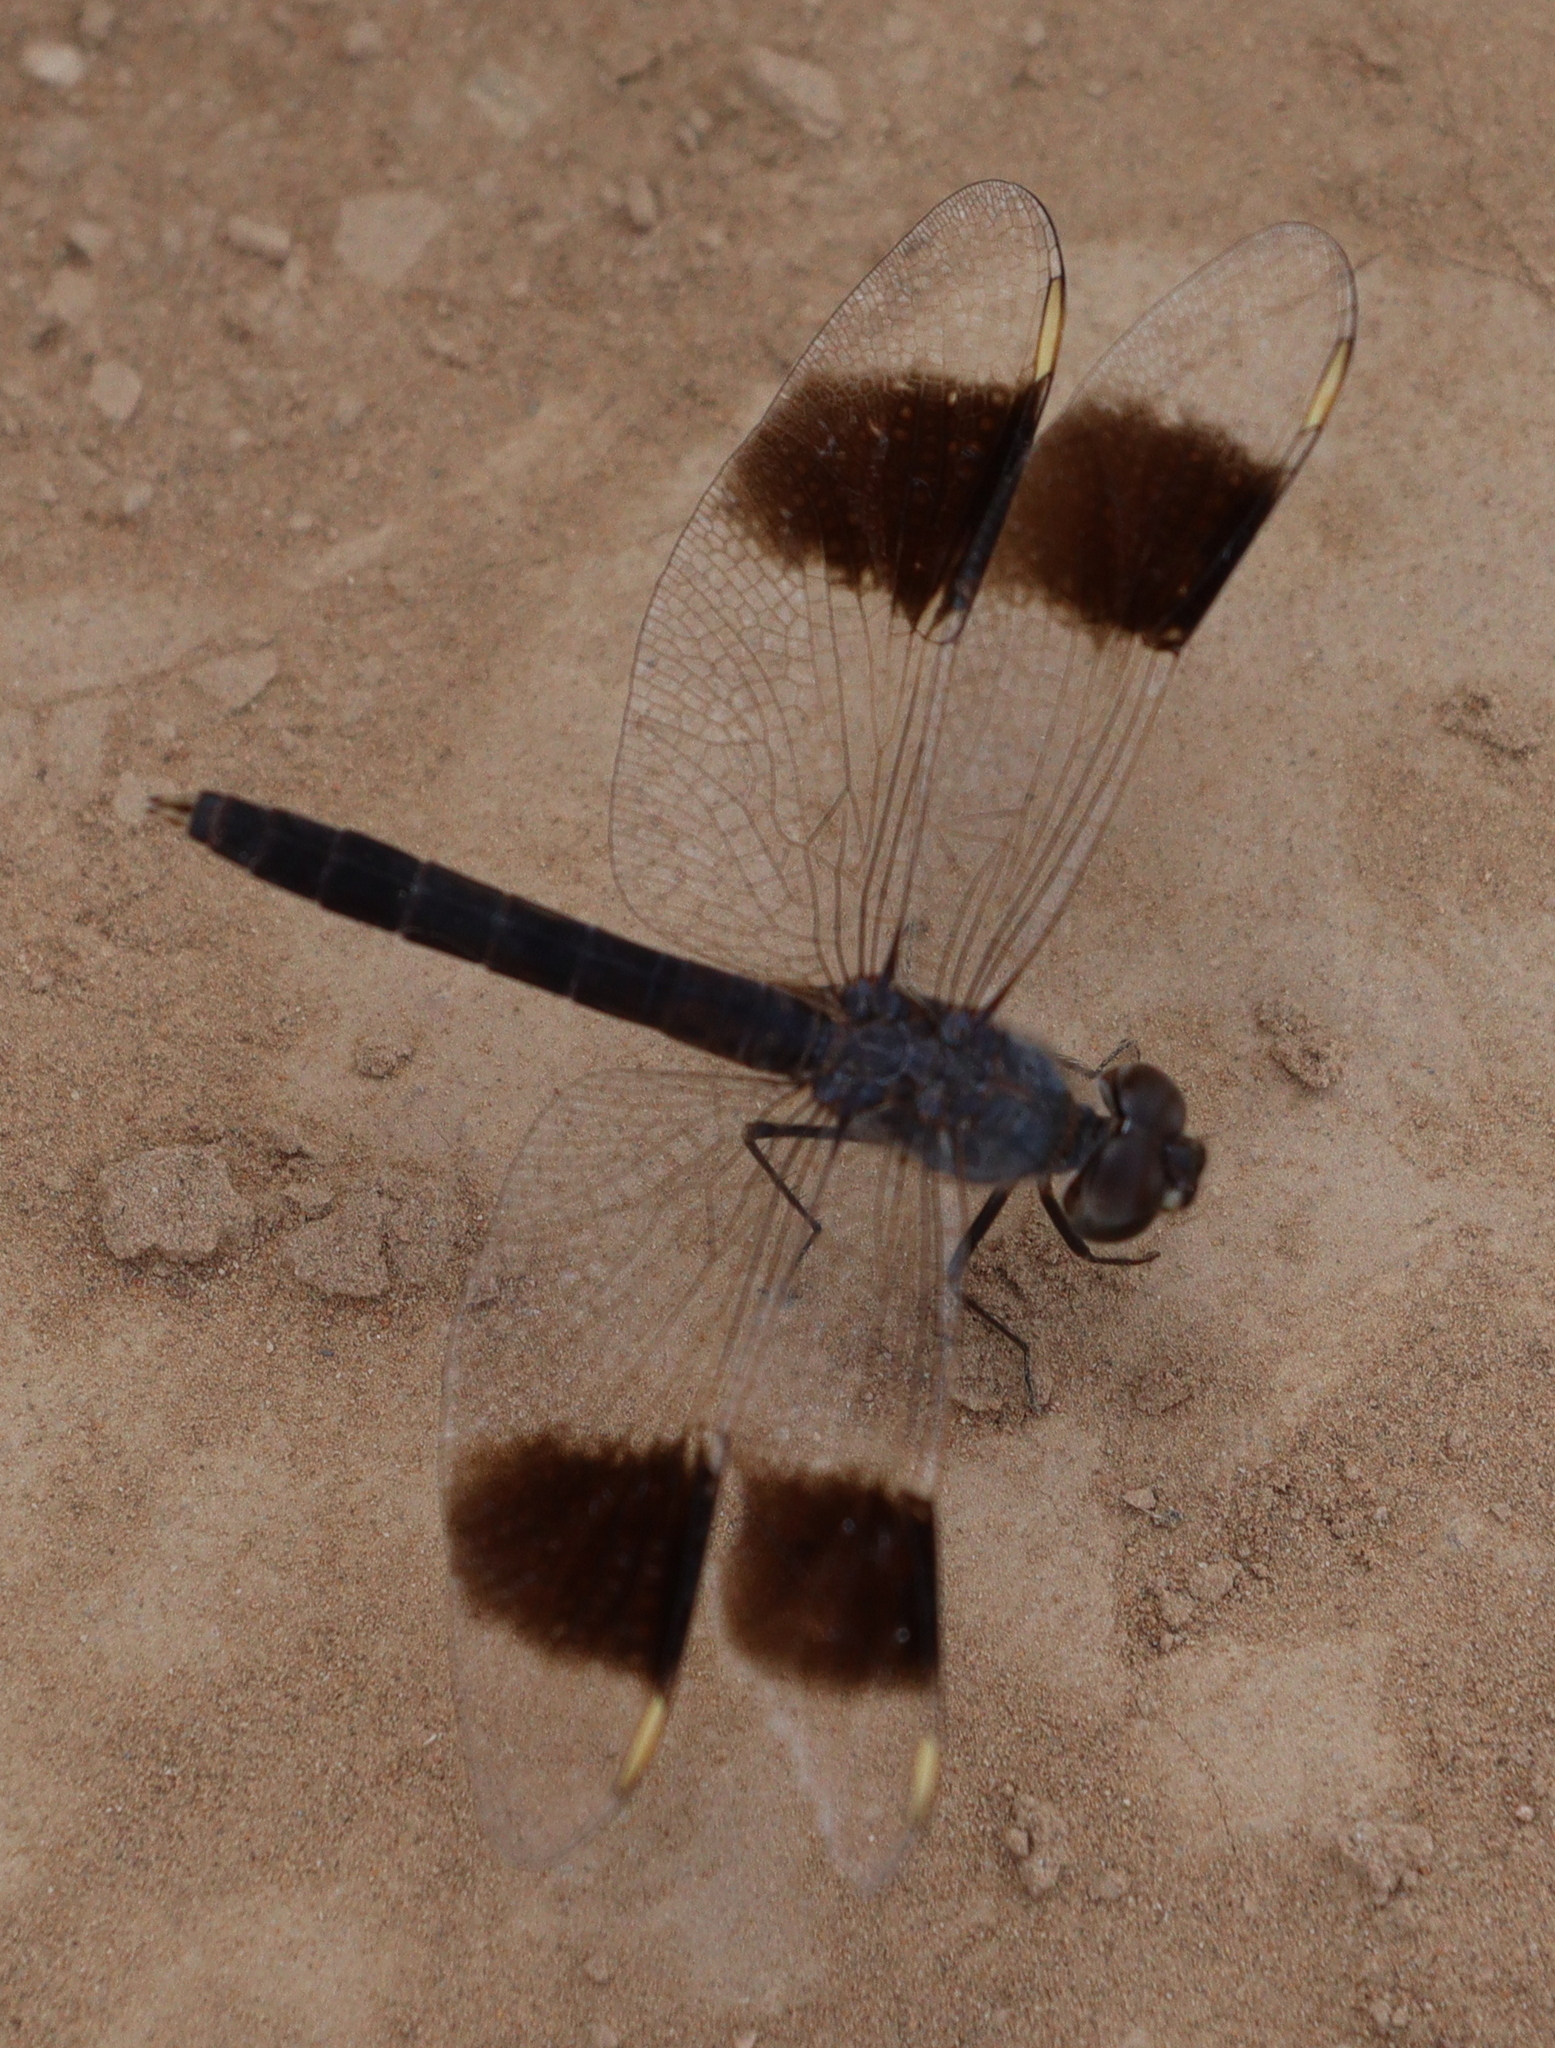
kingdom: Animalia
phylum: Arthropoda
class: Insecta
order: Odonata
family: Libellulidae
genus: Brachythemis
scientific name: Brachythemis impartita
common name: Banded groundling
